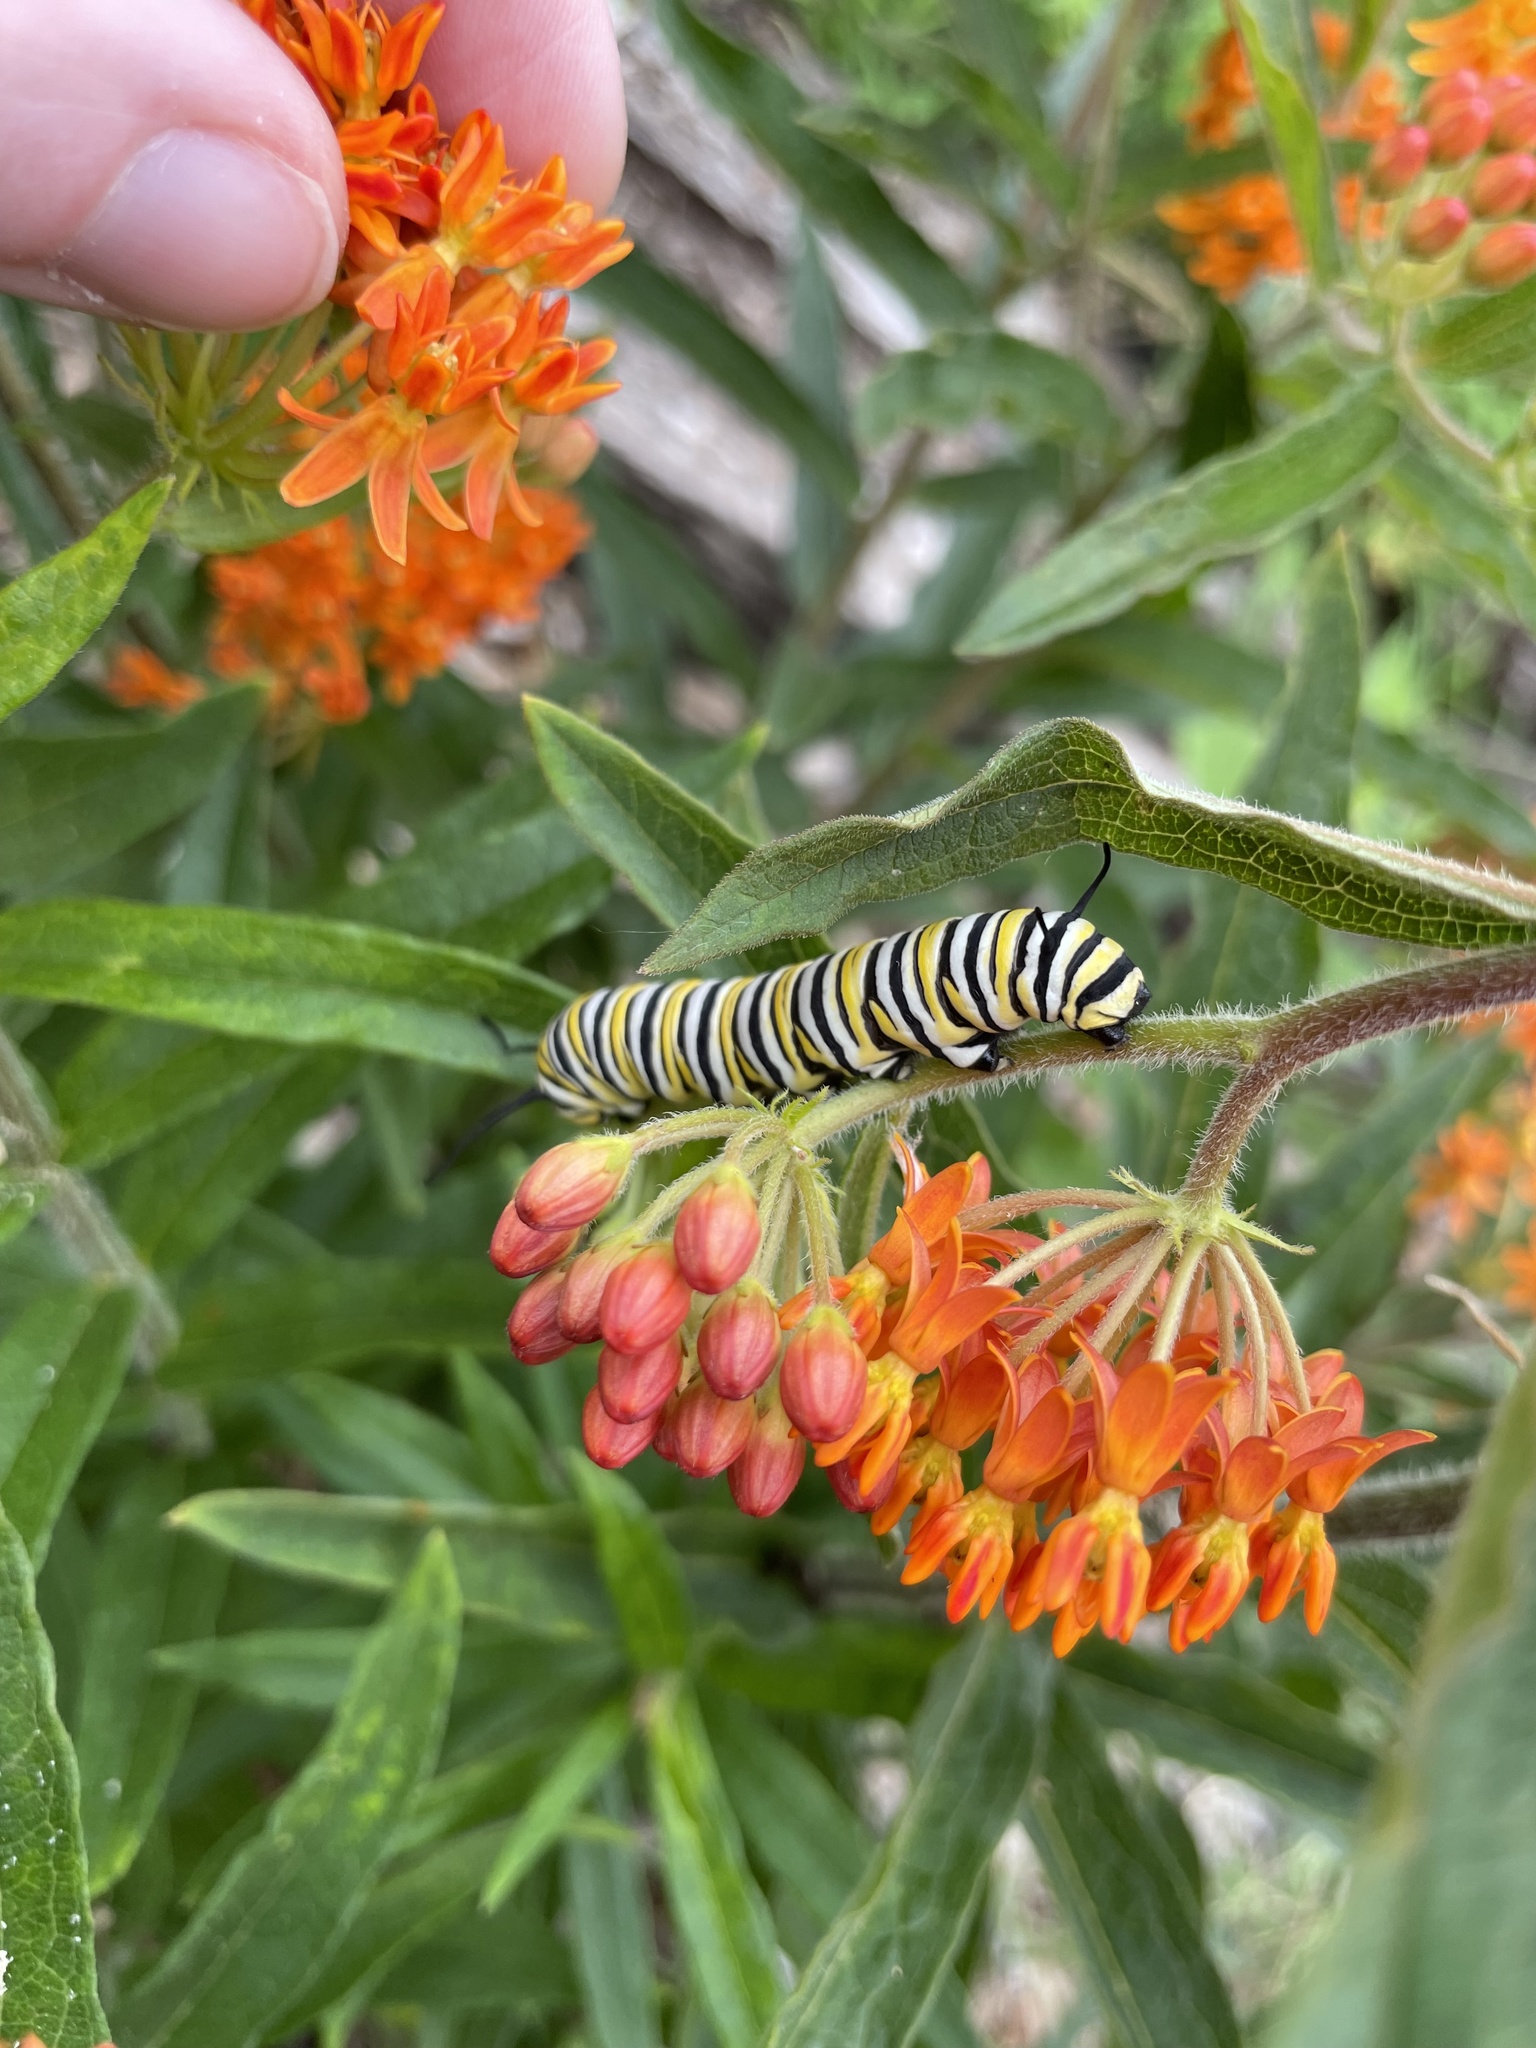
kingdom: Animalia
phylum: Arthropoda
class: Insecta
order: Lepidoptera
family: Nymphalidae
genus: Danaus
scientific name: Danaus plexippus
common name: Monarch
